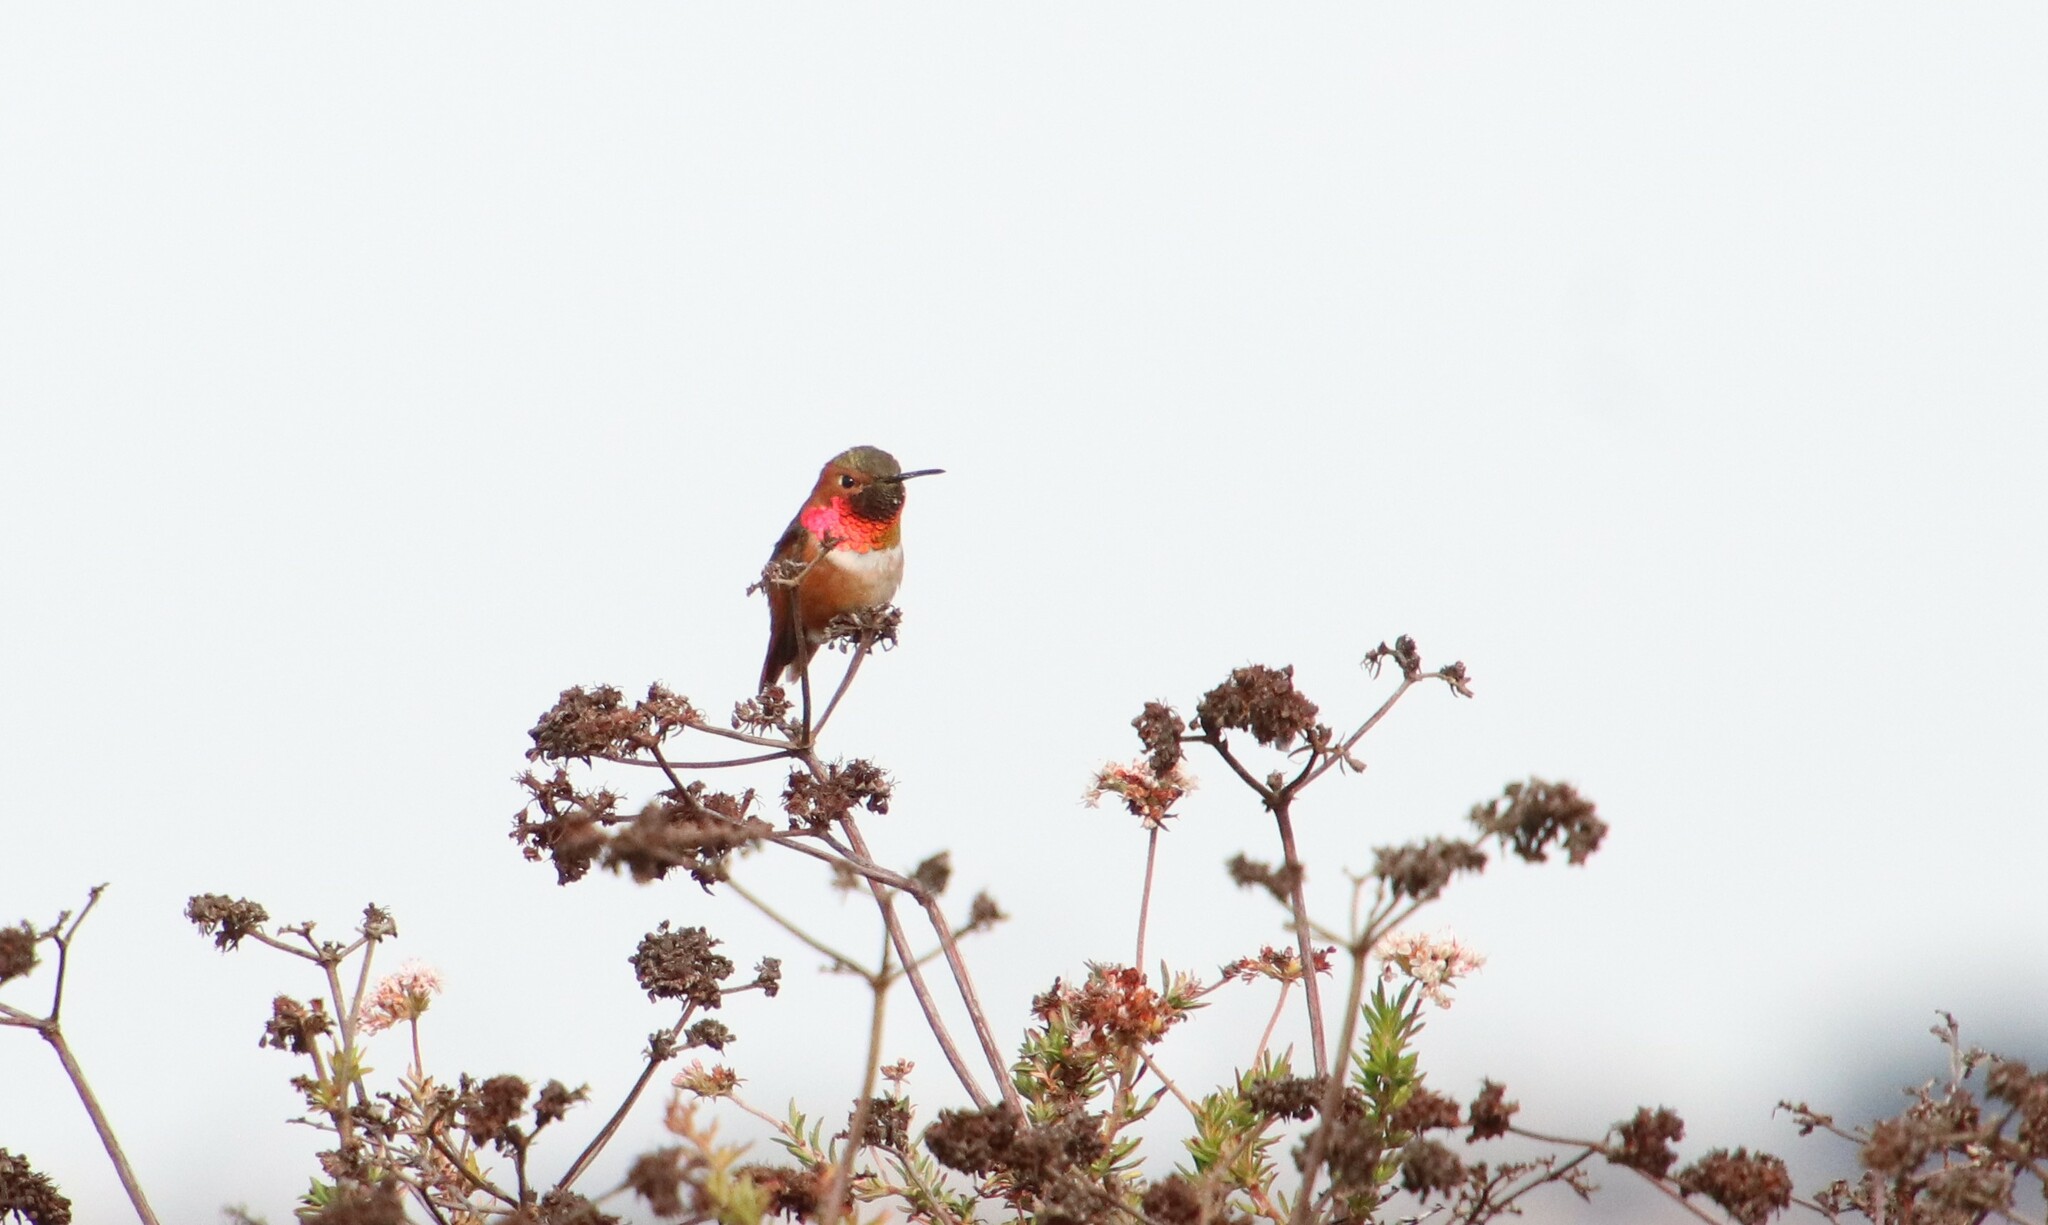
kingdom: Animalia
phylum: Chordata
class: Aves
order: Apodiformes
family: Trochilidae
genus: Selasphorus
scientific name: Selasphorus sasin
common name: Allen's hummingbird
